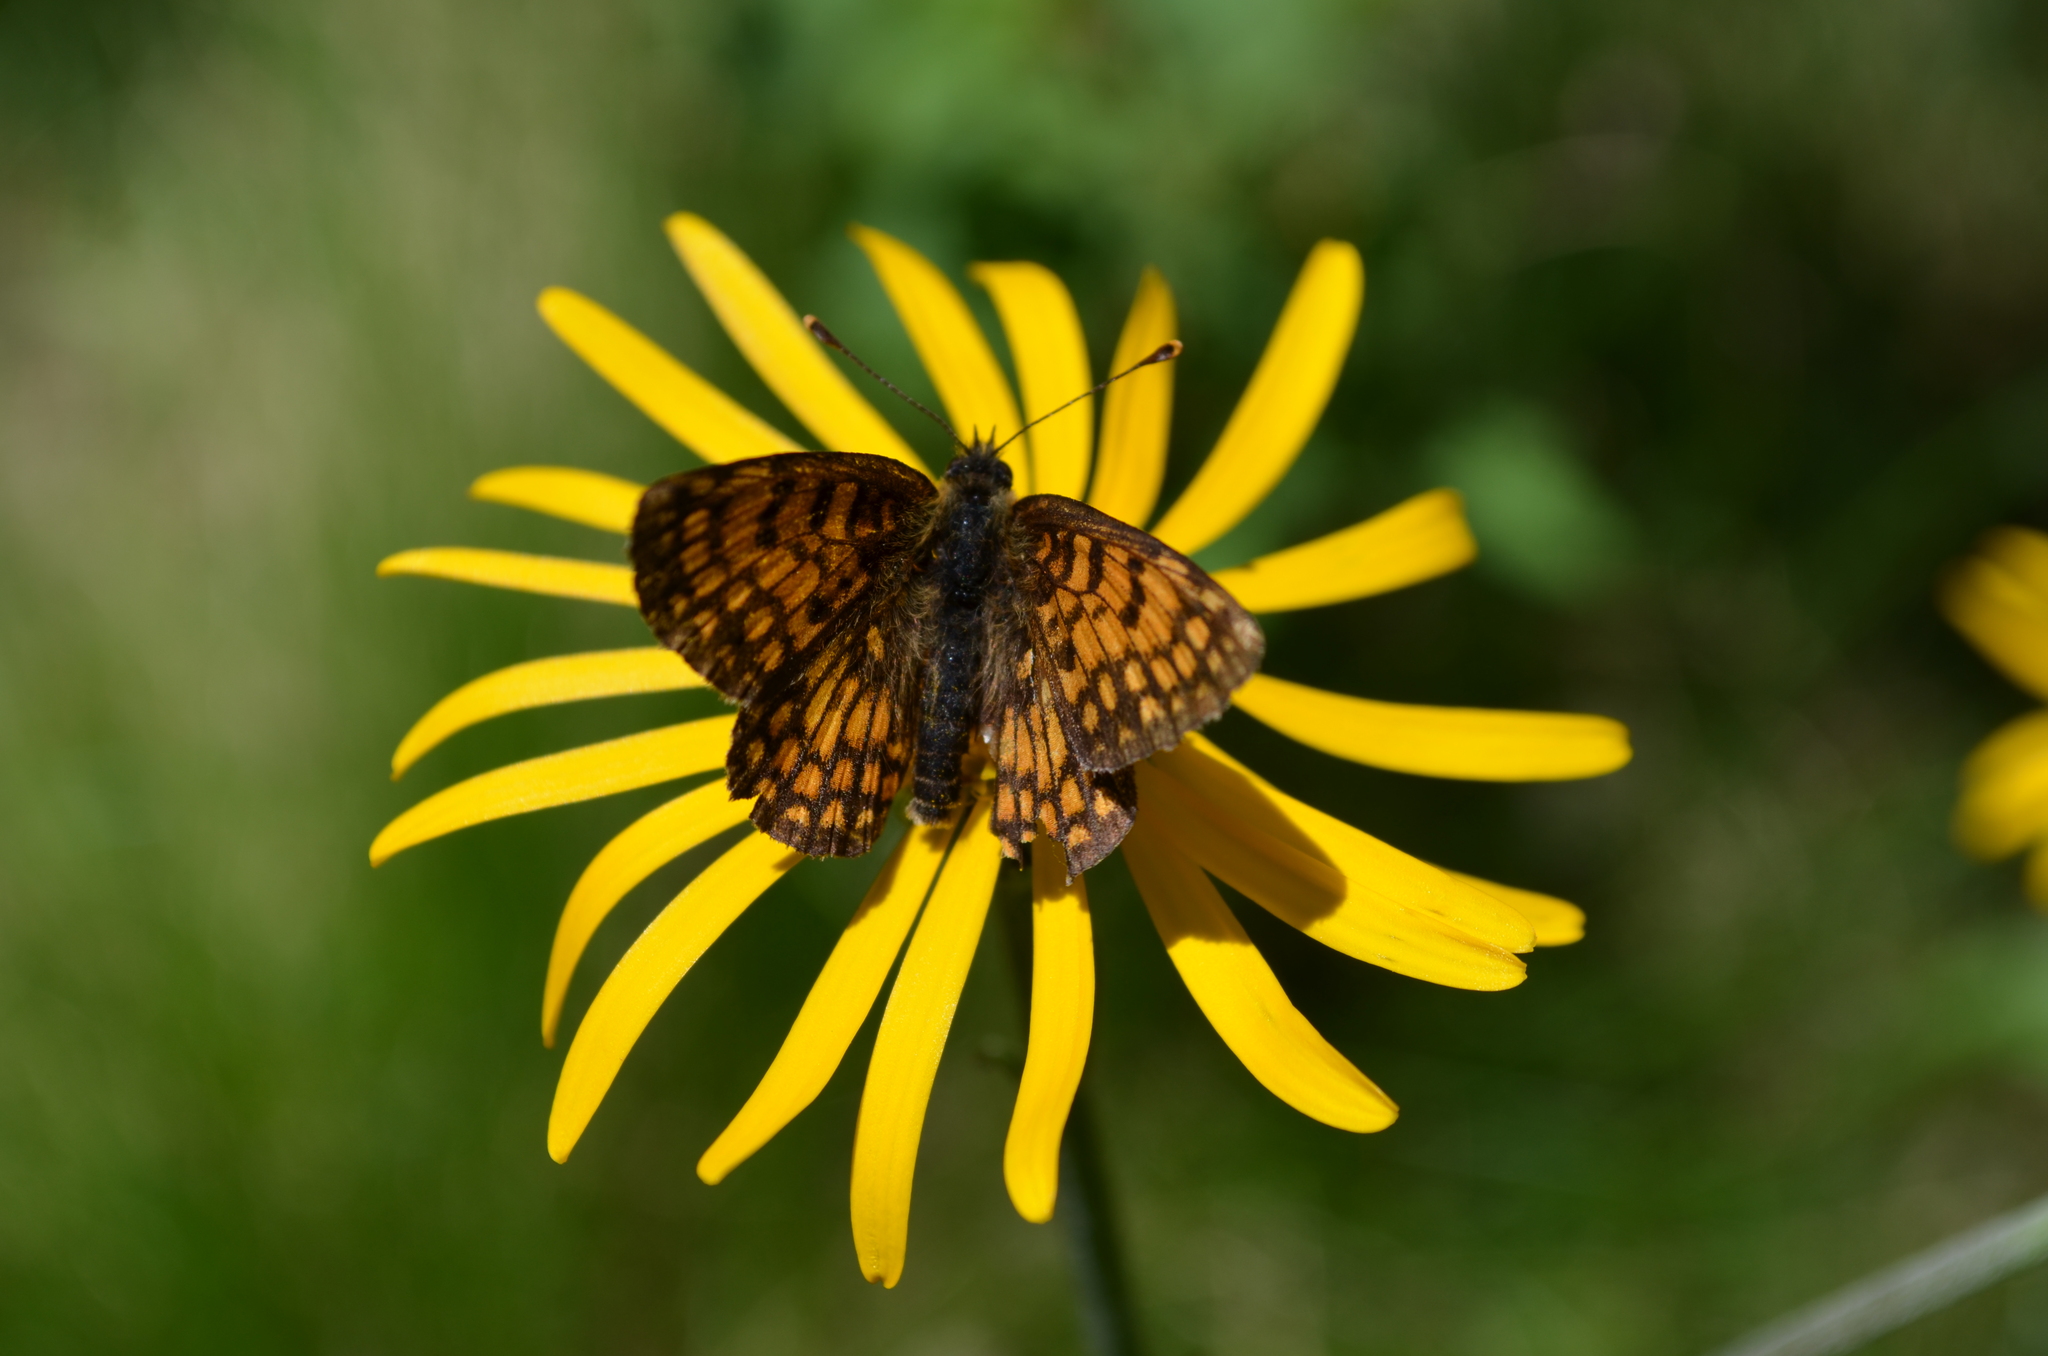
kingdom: Animalia
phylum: Arthropoda
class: Insecta
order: Lepidoptera
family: Nymphalidae
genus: Mellicta
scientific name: Mellicta athalia
